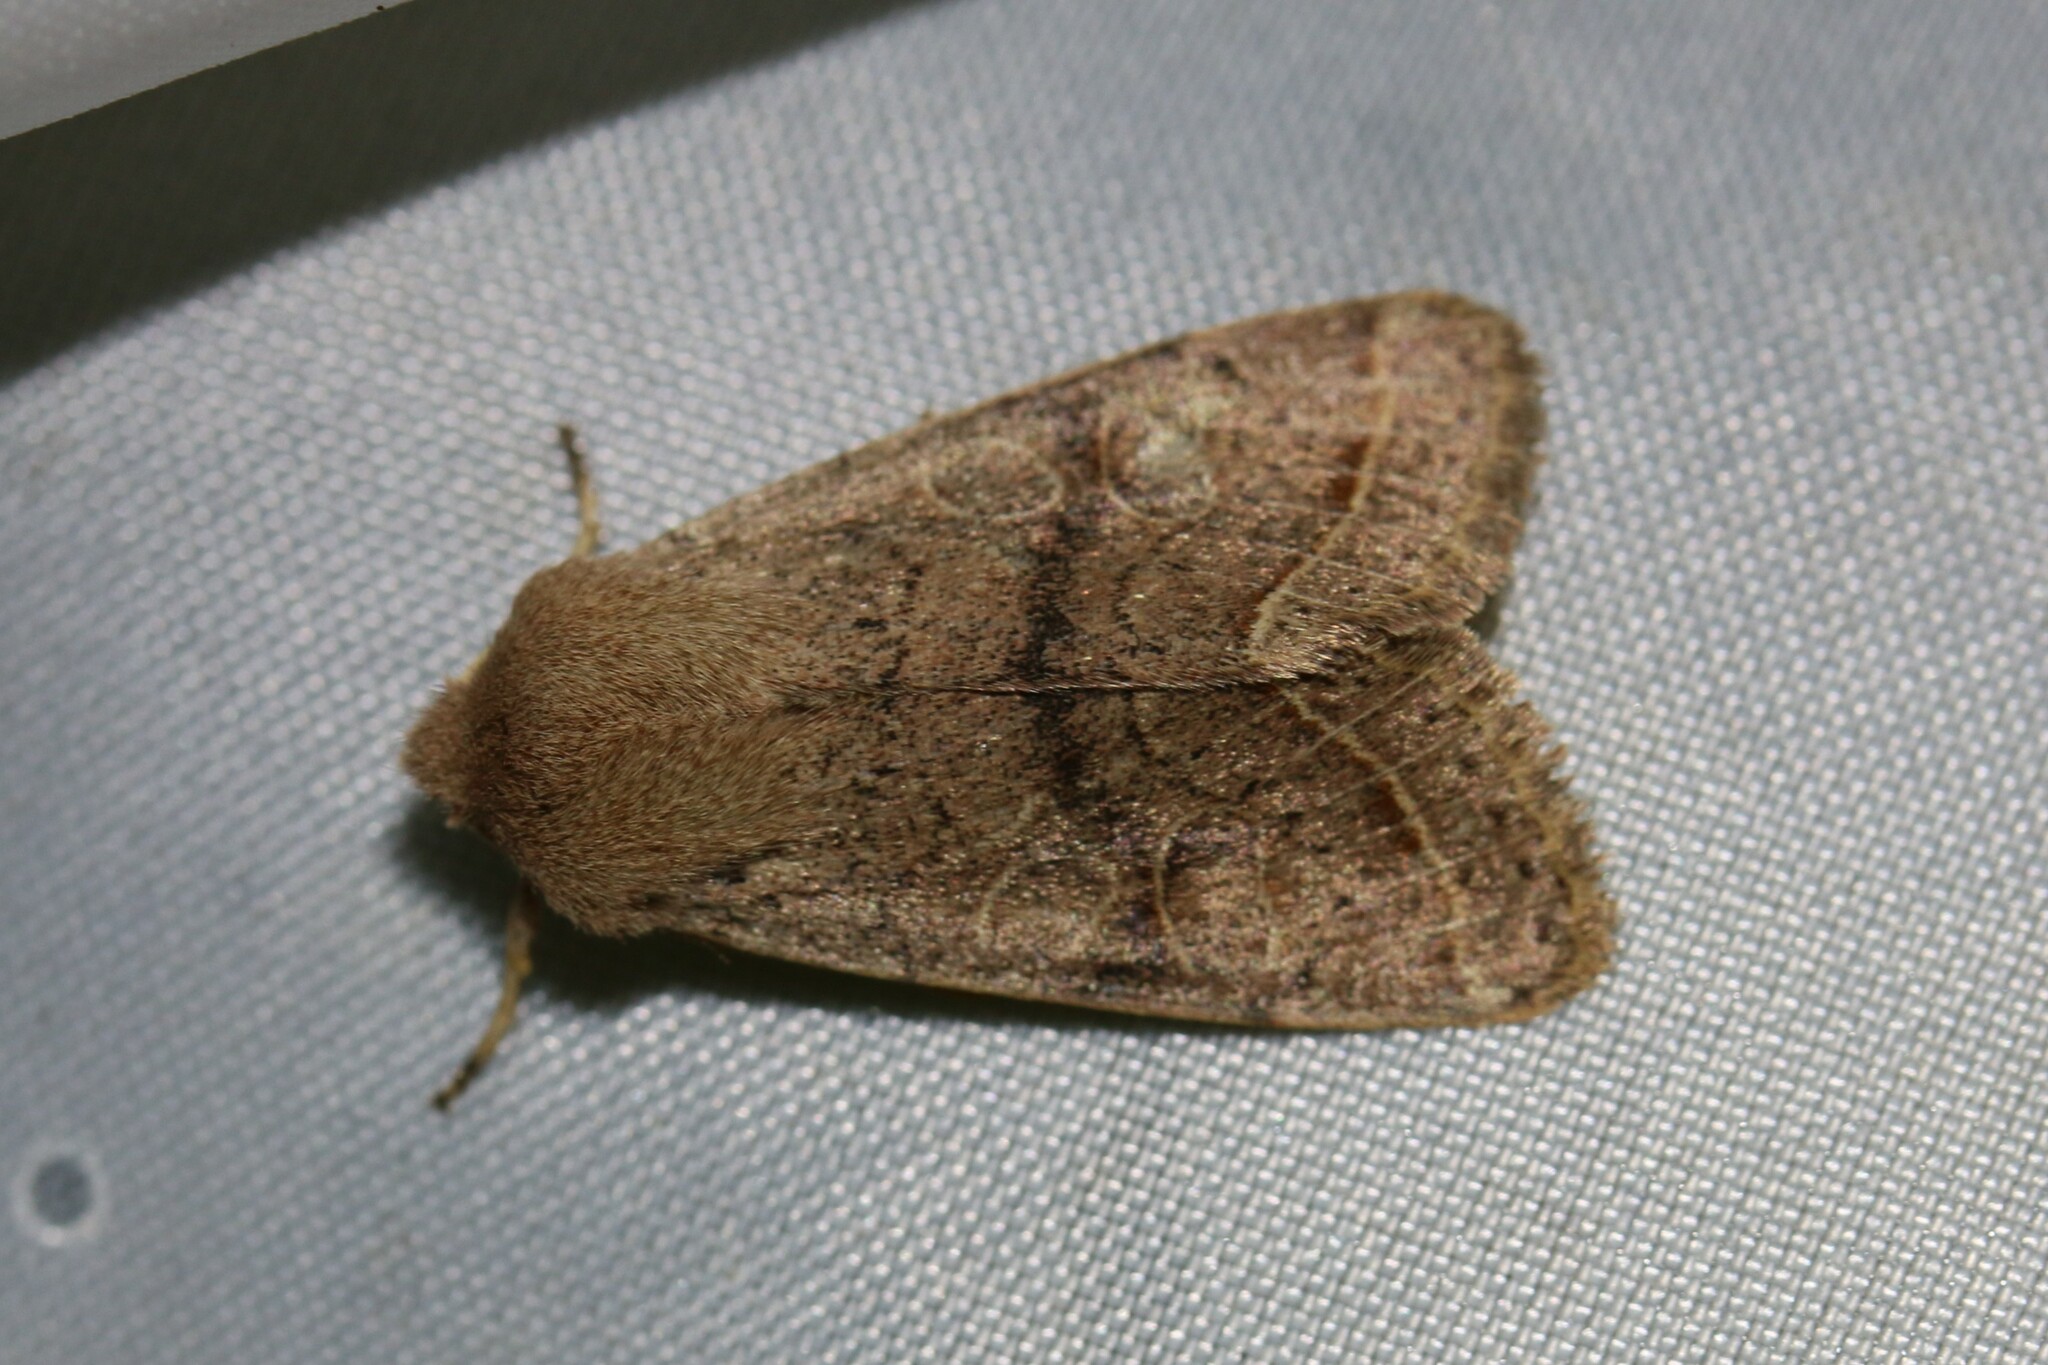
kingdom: Animalia
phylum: Arthropoda
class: Insecta
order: Lepidoptera
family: Noctuidae
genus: Orthosia
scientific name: Orthosia cerasi
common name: Common quaker
